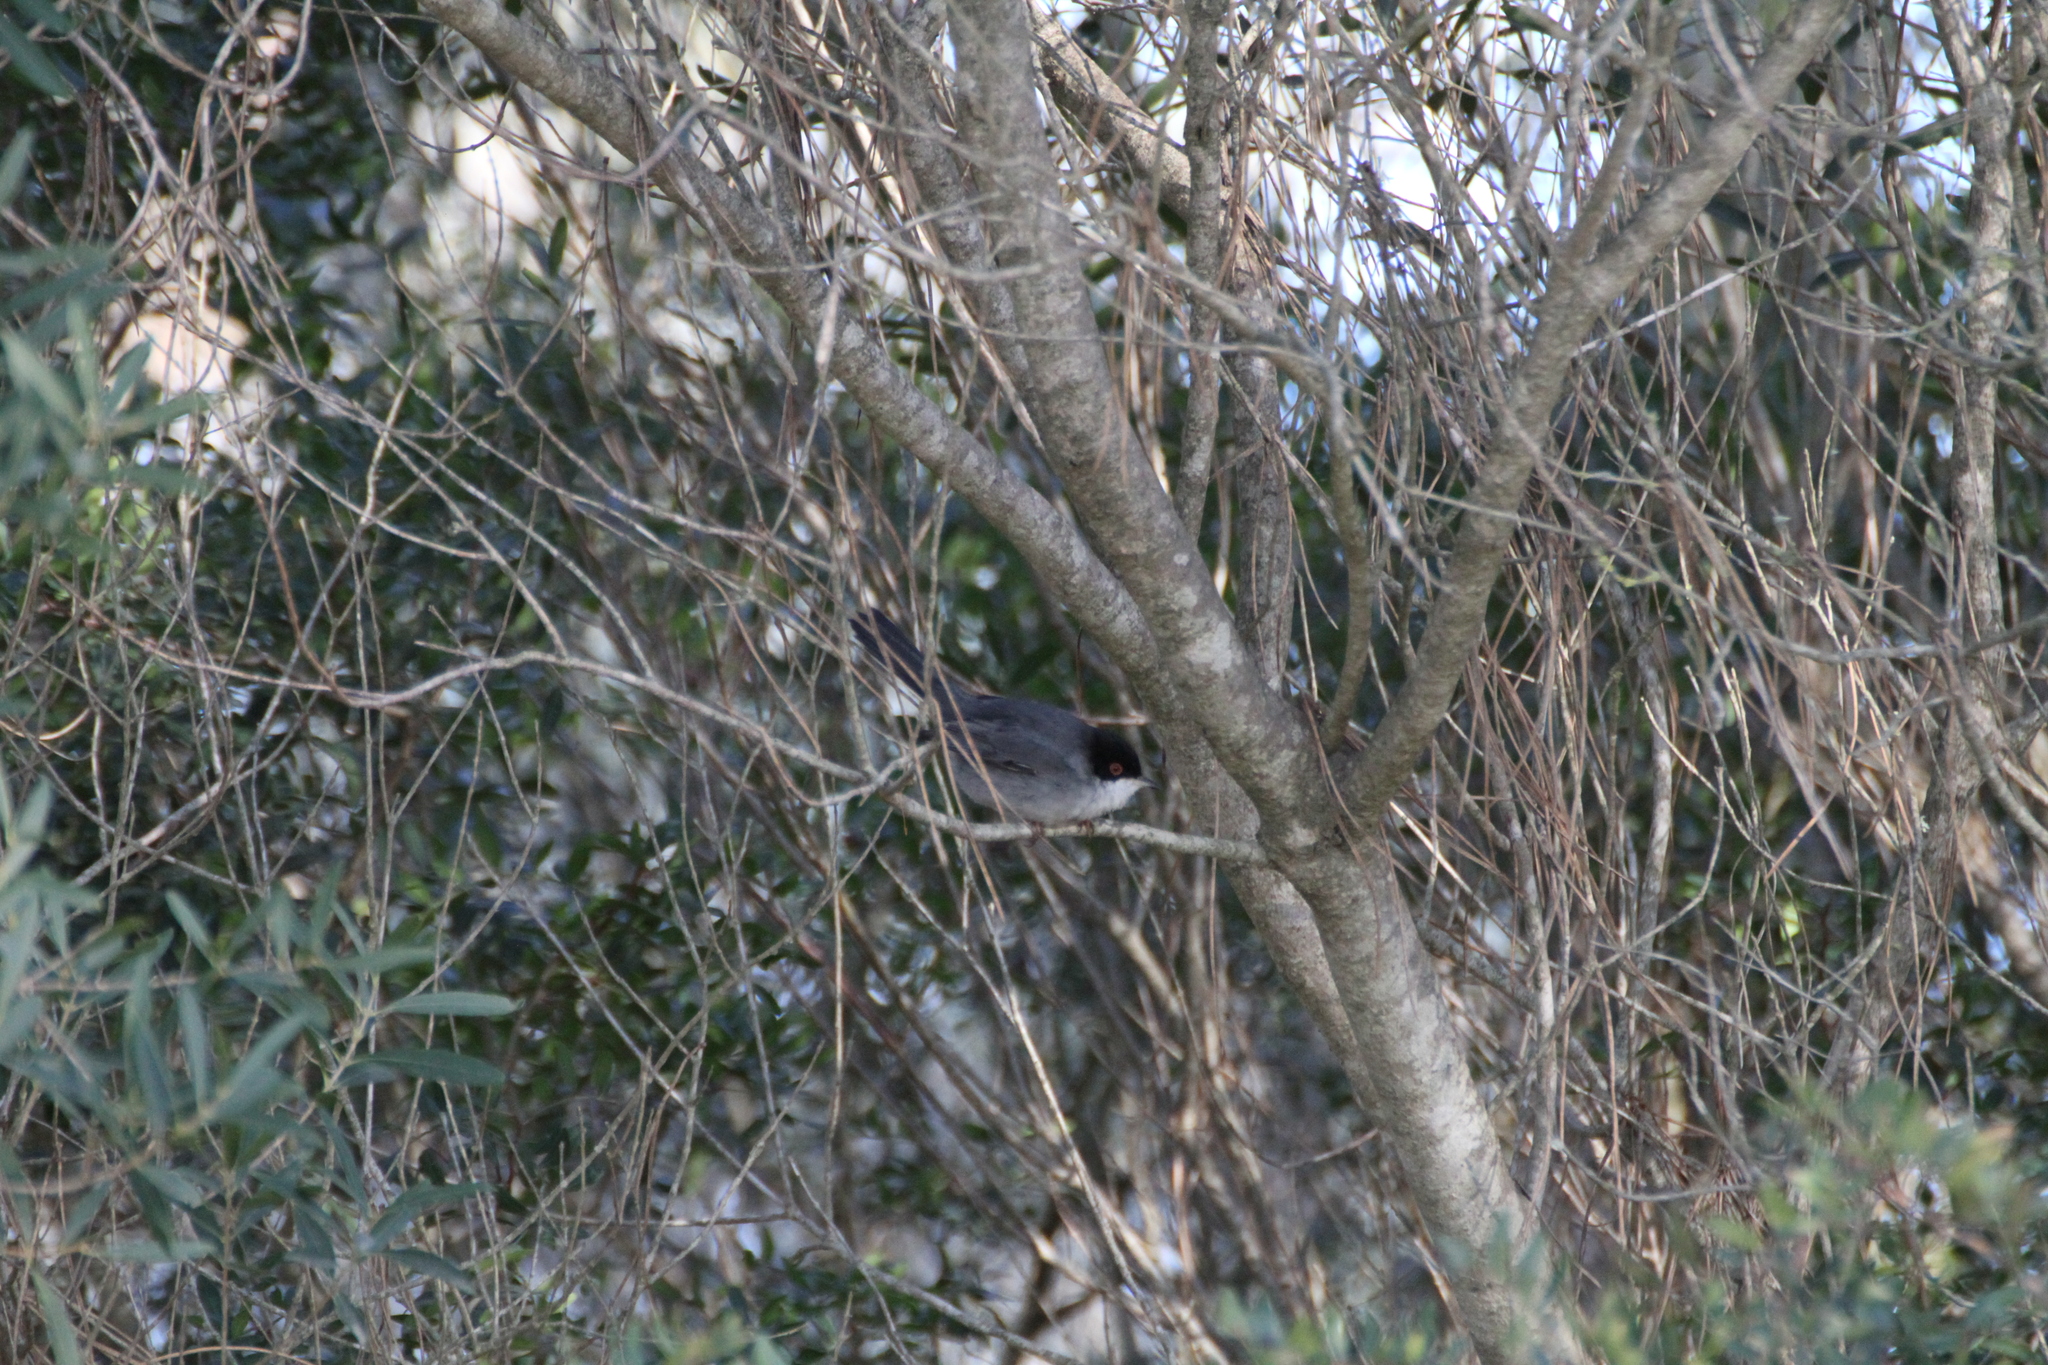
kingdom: Animalia
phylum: Chordata
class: Aves
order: Passeriformes
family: Sylviidae
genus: Curruca
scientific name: Curruca melanocephala
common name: Sardinian warbler
